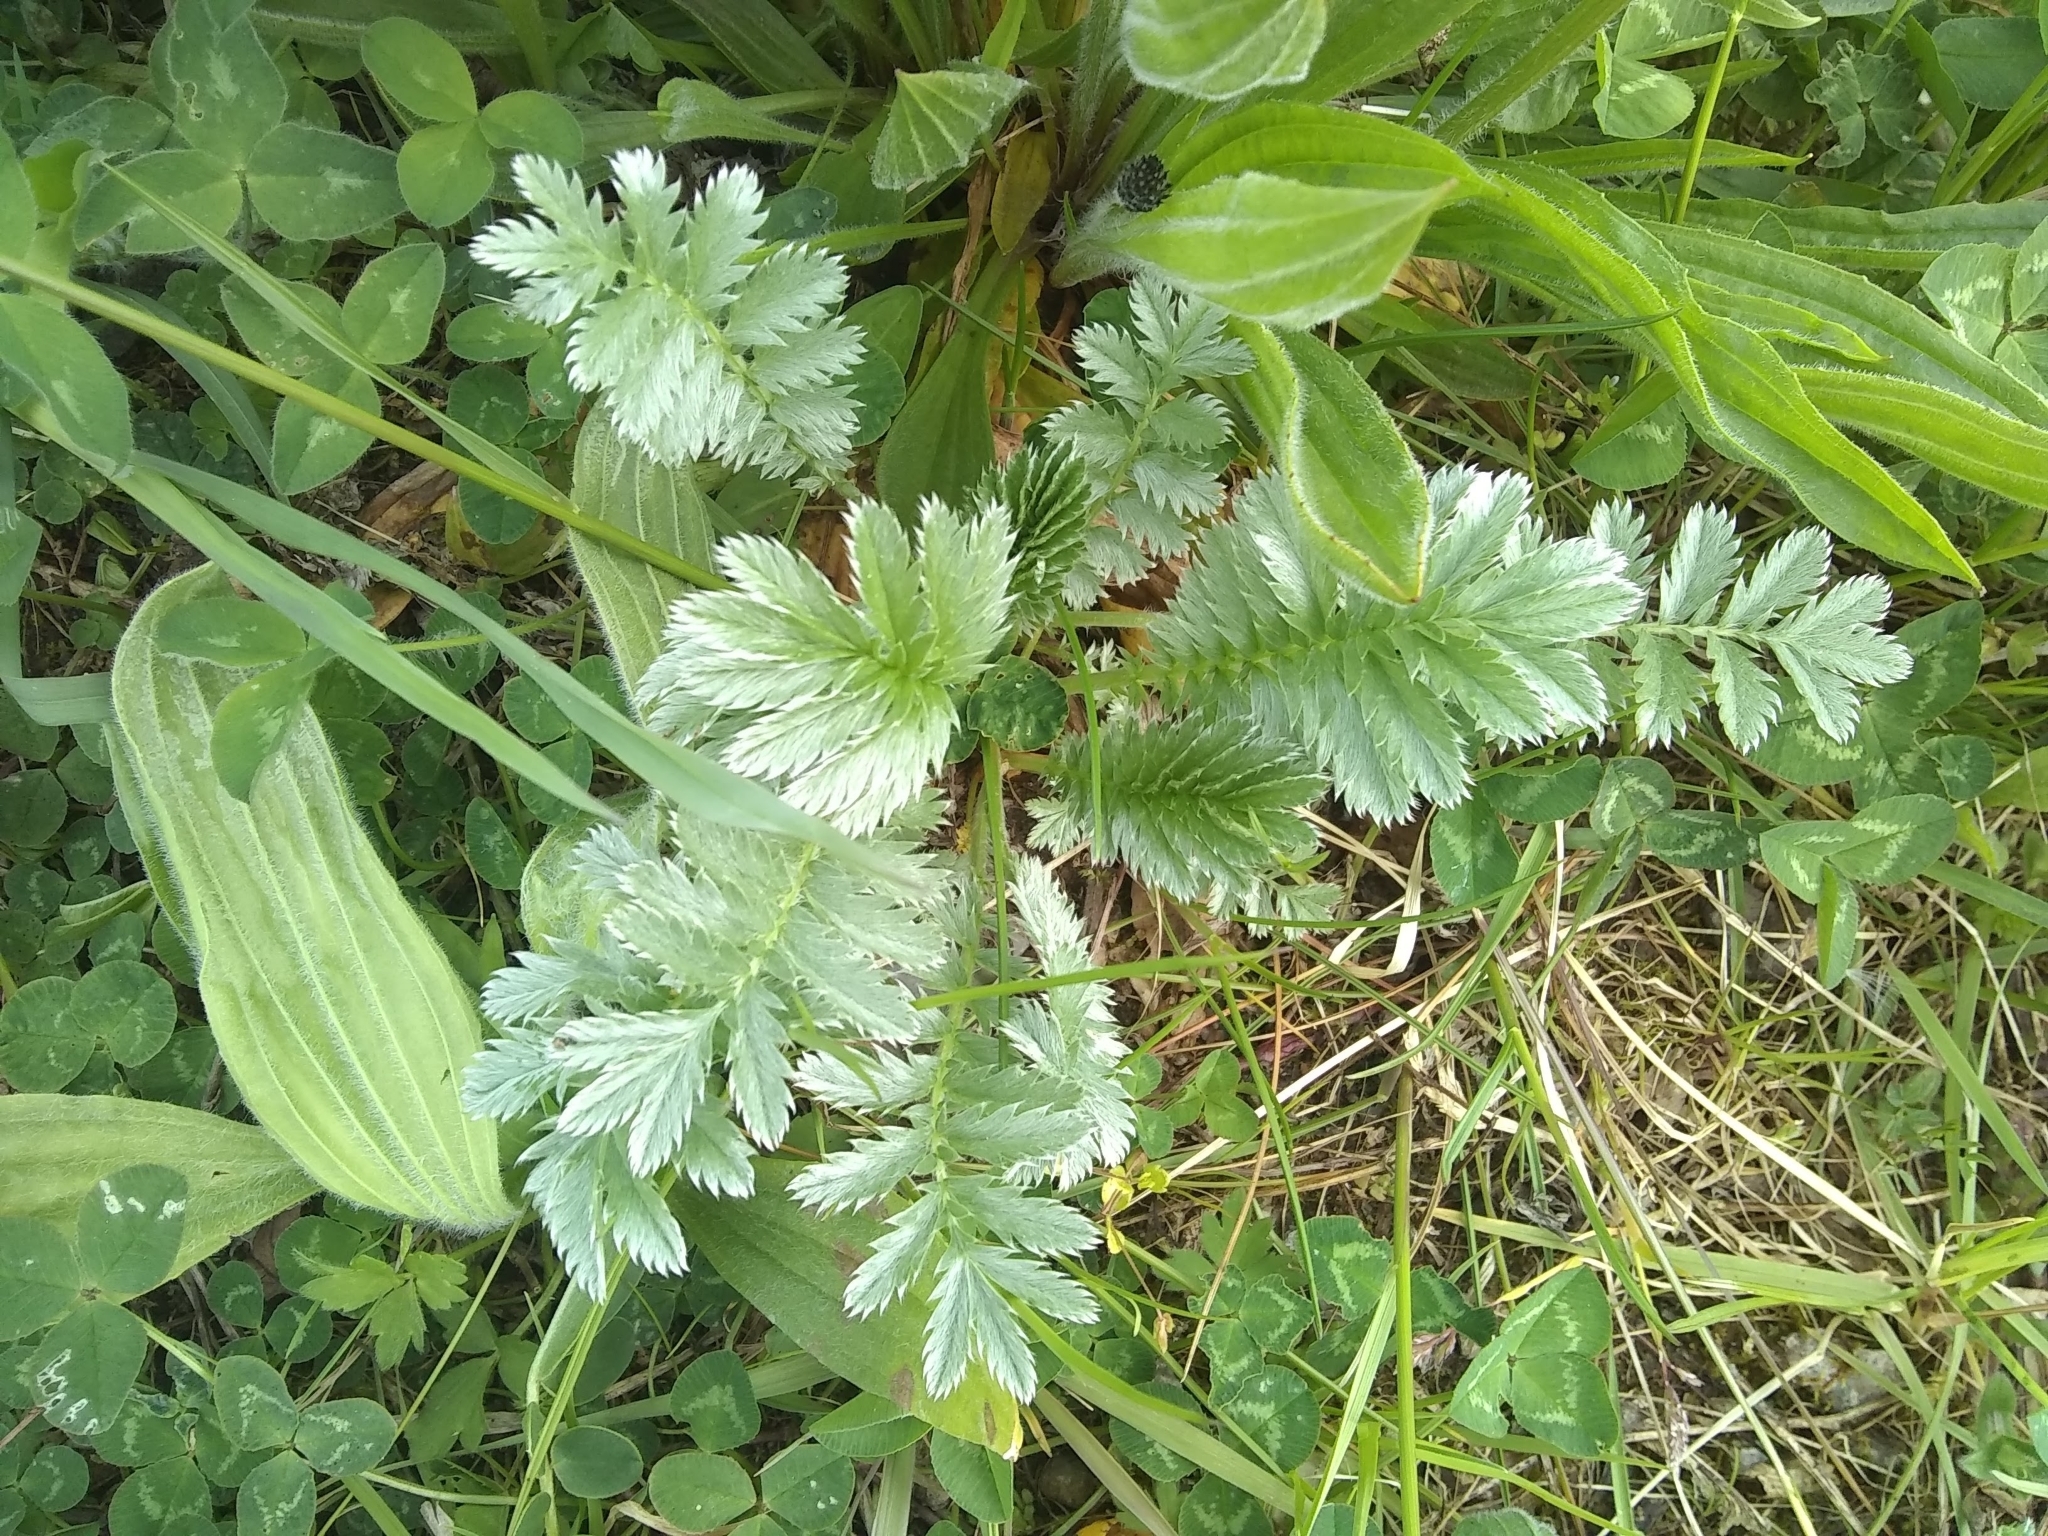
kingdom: Plantae
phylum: Tracheophyta
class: Magnoliopsida
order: Rosales
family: Rosaceae
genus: Argentina
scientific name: Argentina anserina
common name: Common silverweed
